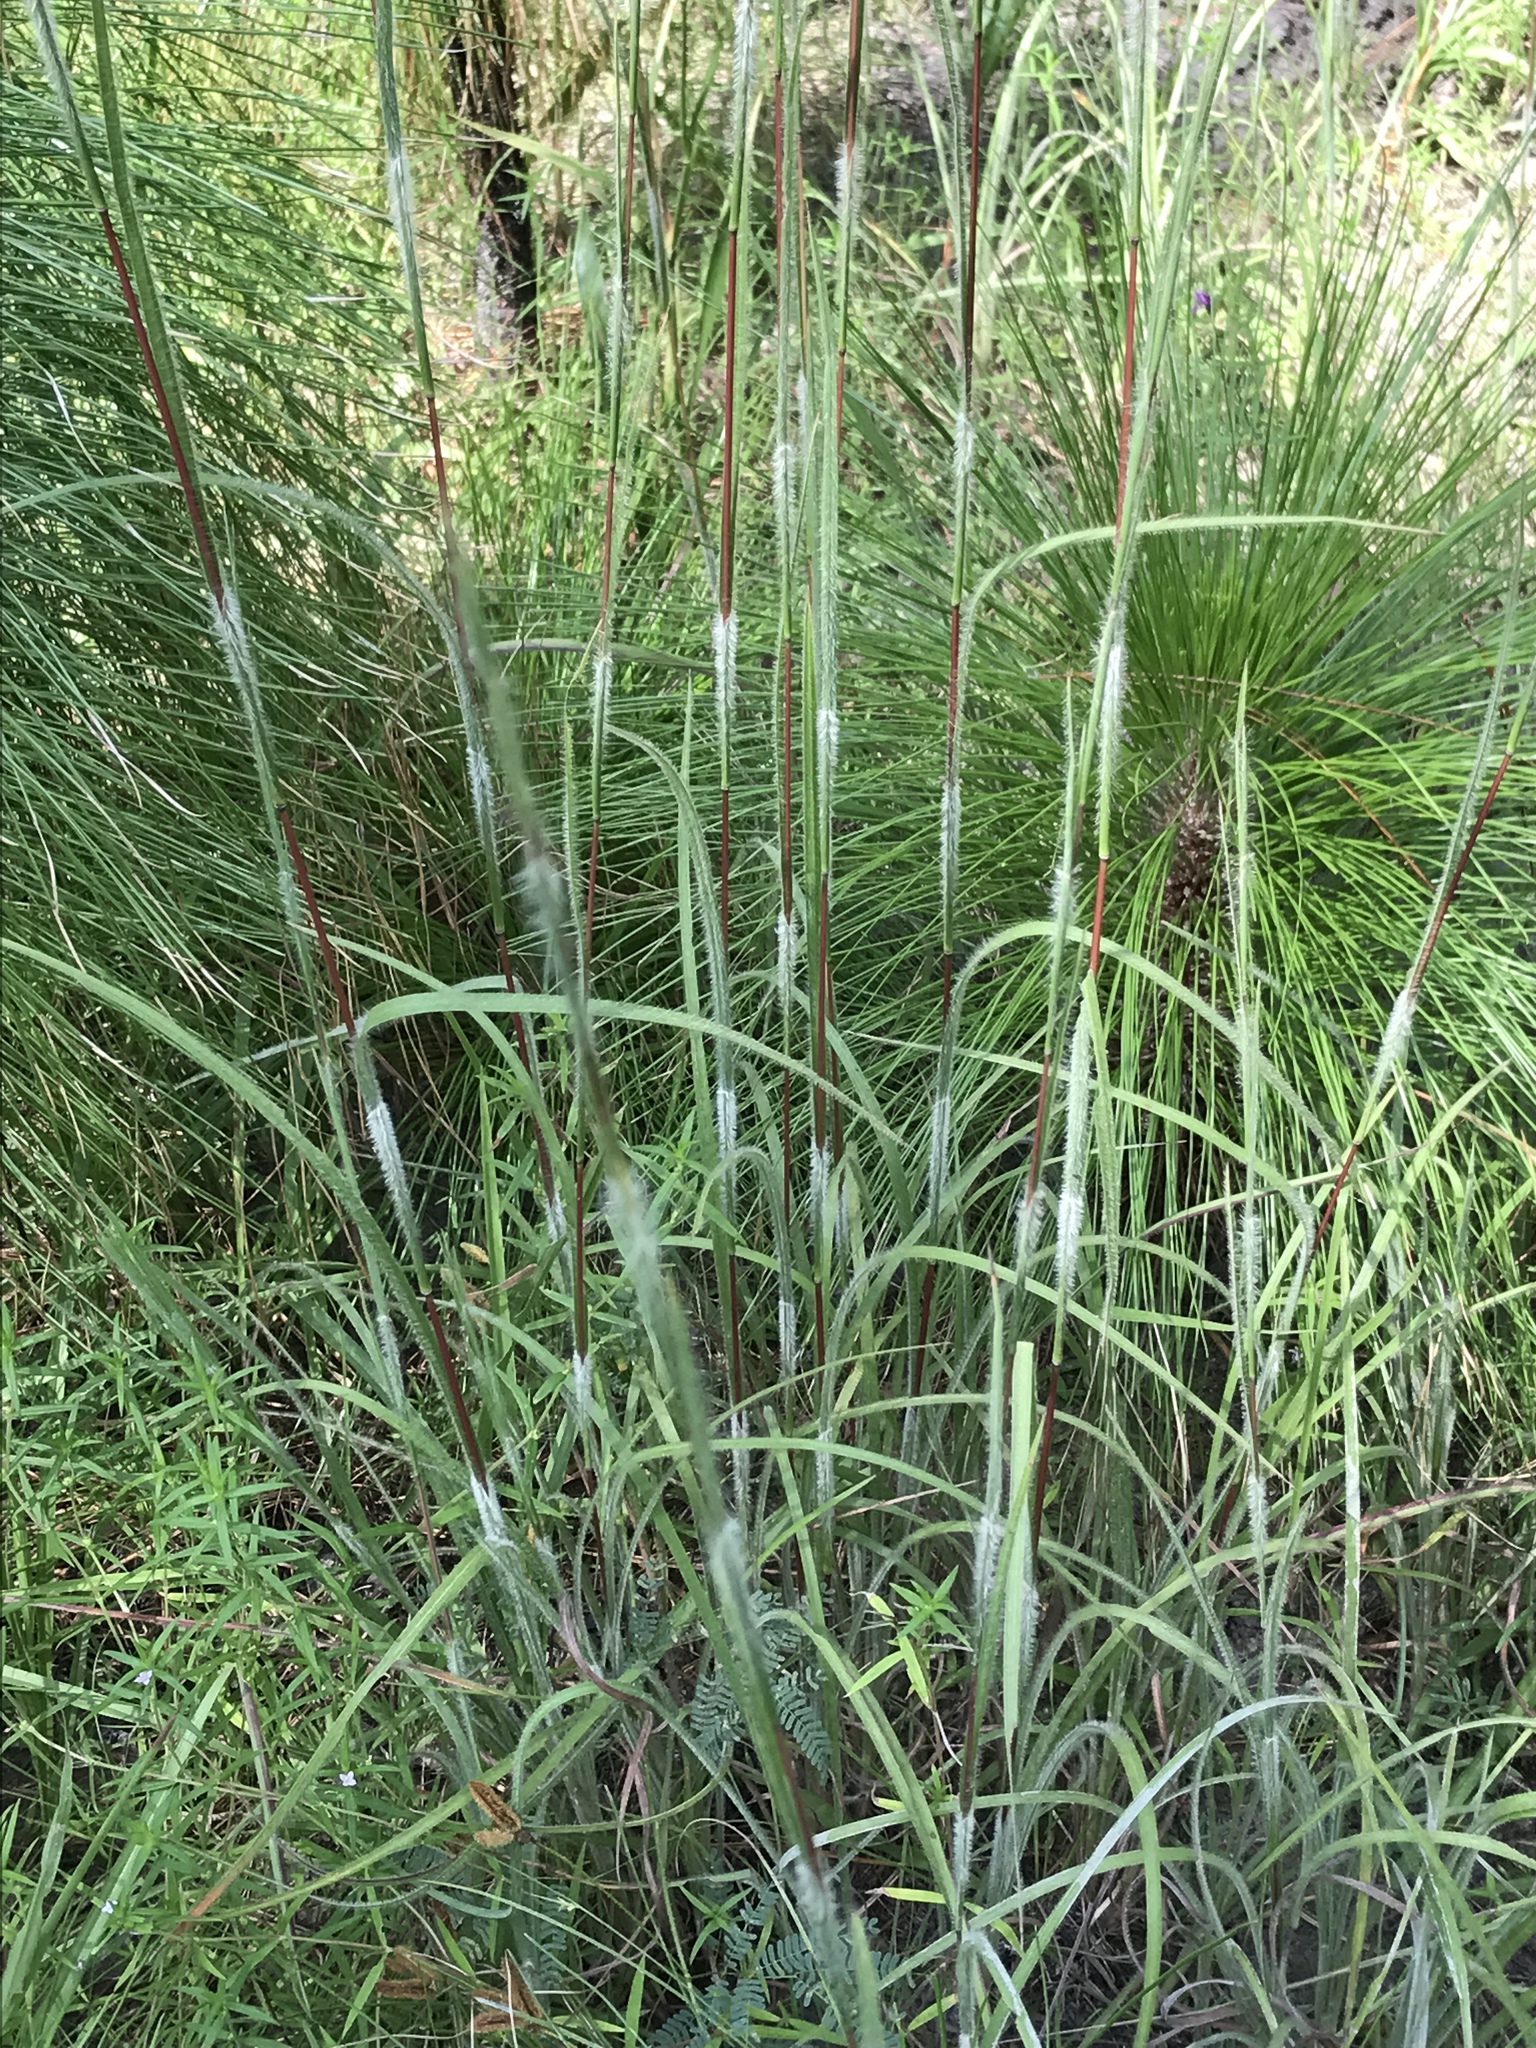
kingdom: Plantae
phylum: Tracheophyta
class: Liliopsida
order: Poales
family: Poaceae
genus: Schizachyrium
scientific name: Schizachyrium scoparium
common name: Little bluestem
